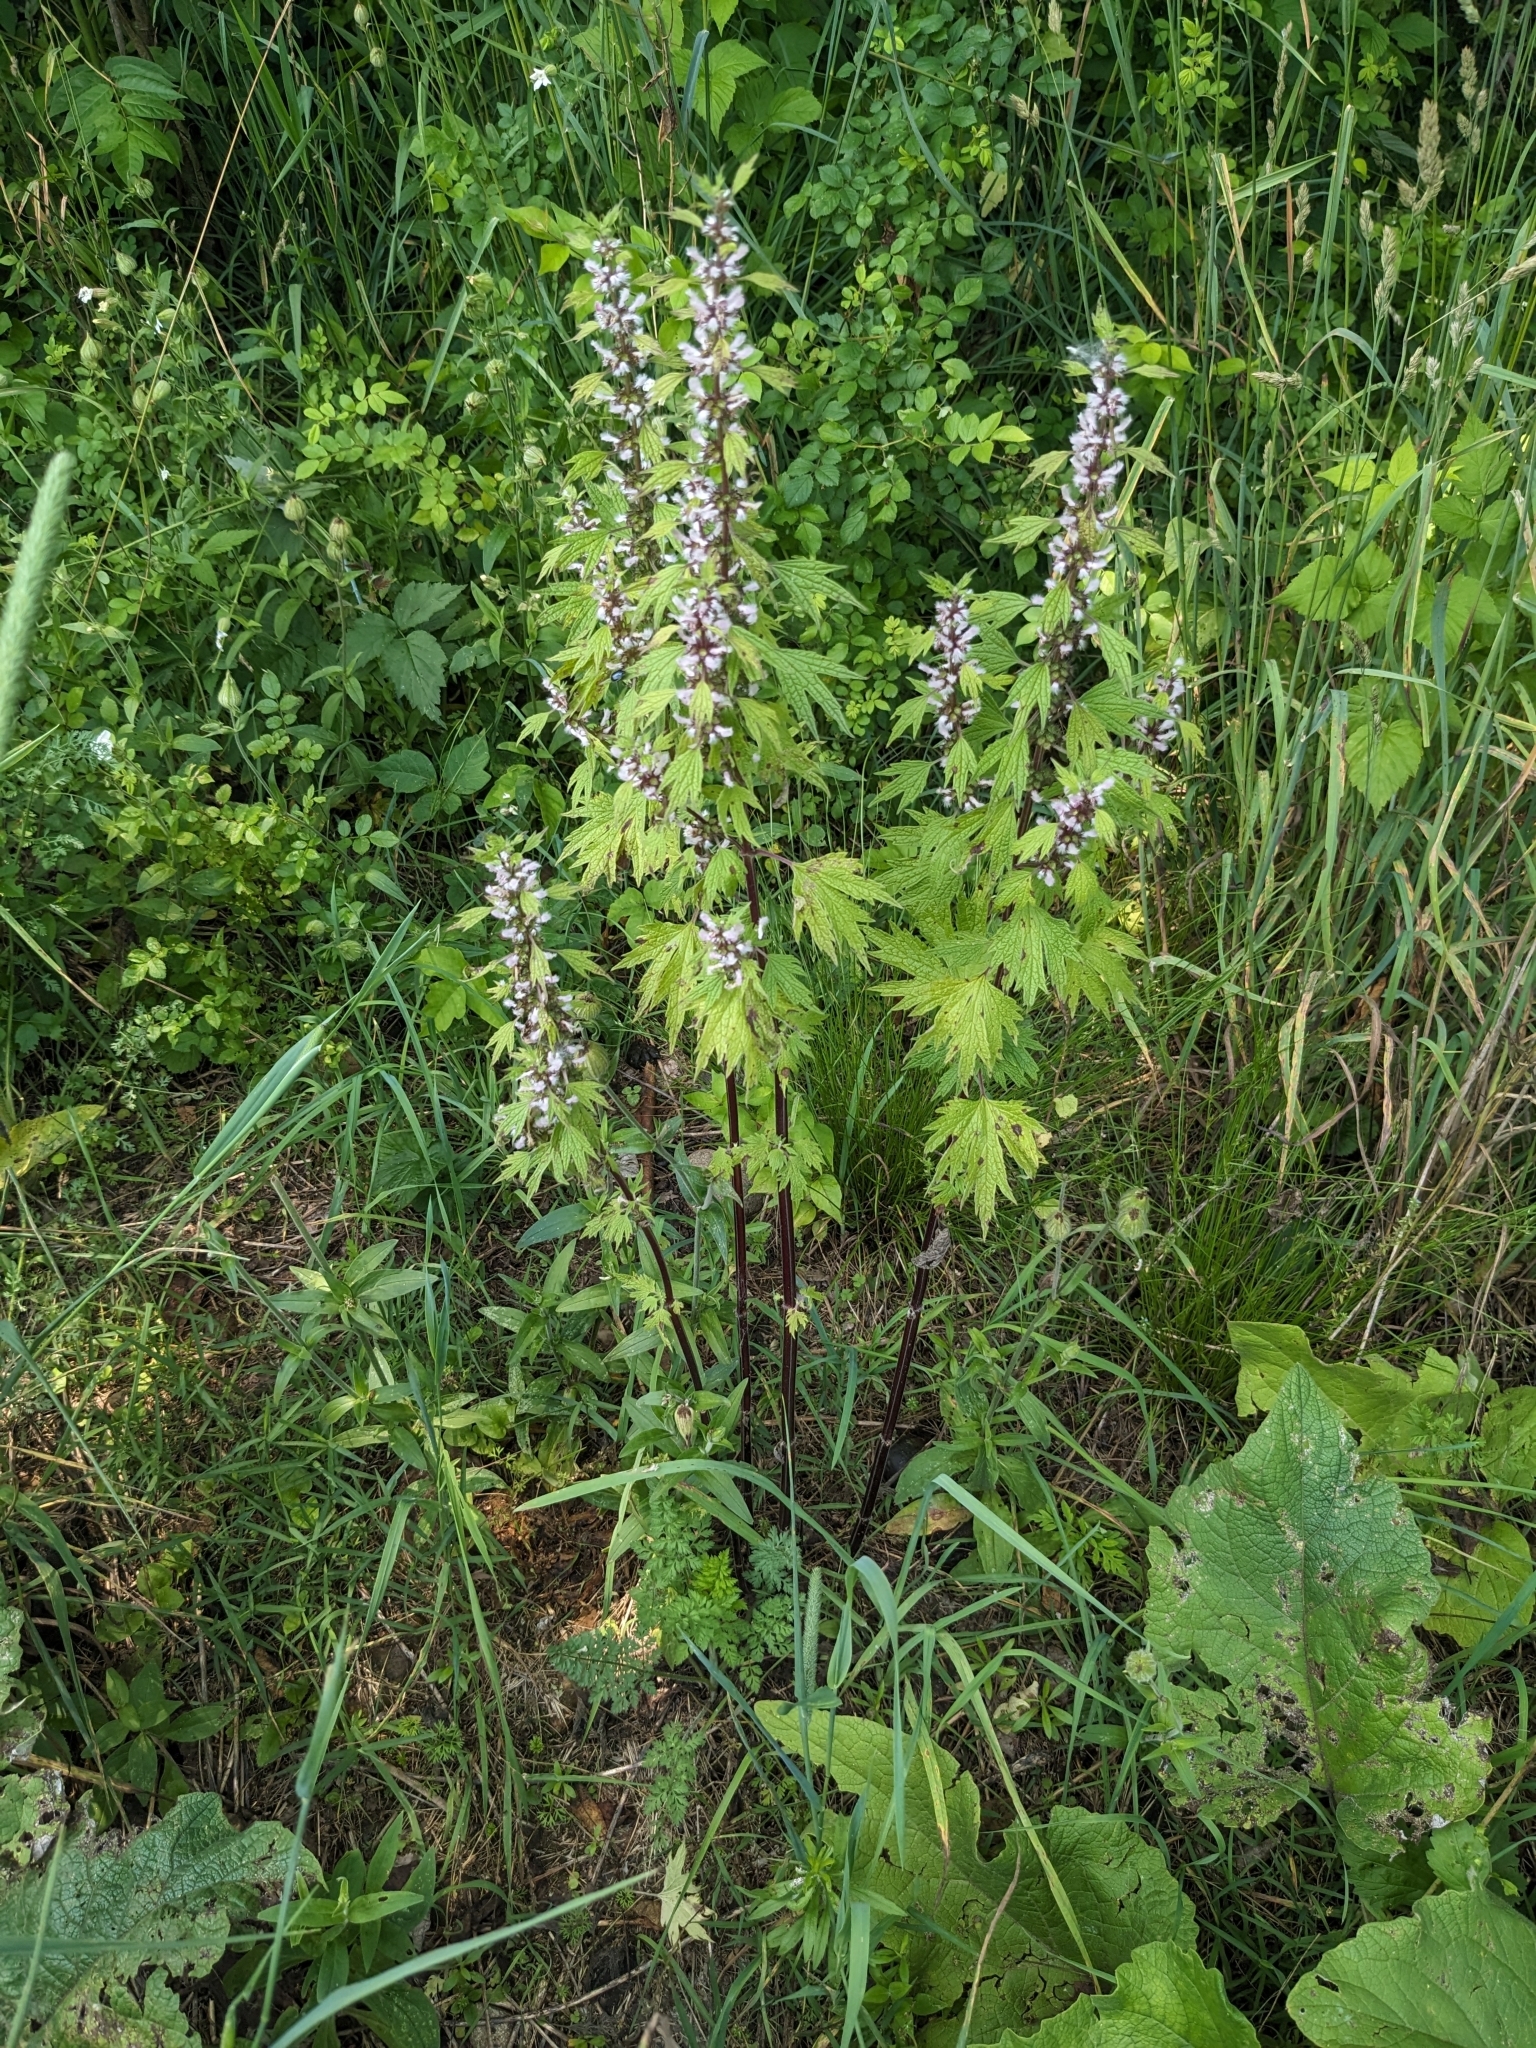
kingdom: Plantae
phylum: Tracheophyta
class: Magnoliopsida
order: Lamiales
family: Lamiaceae
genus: Leonurus
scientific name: Leonurus cardiaca
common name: Motherwort
